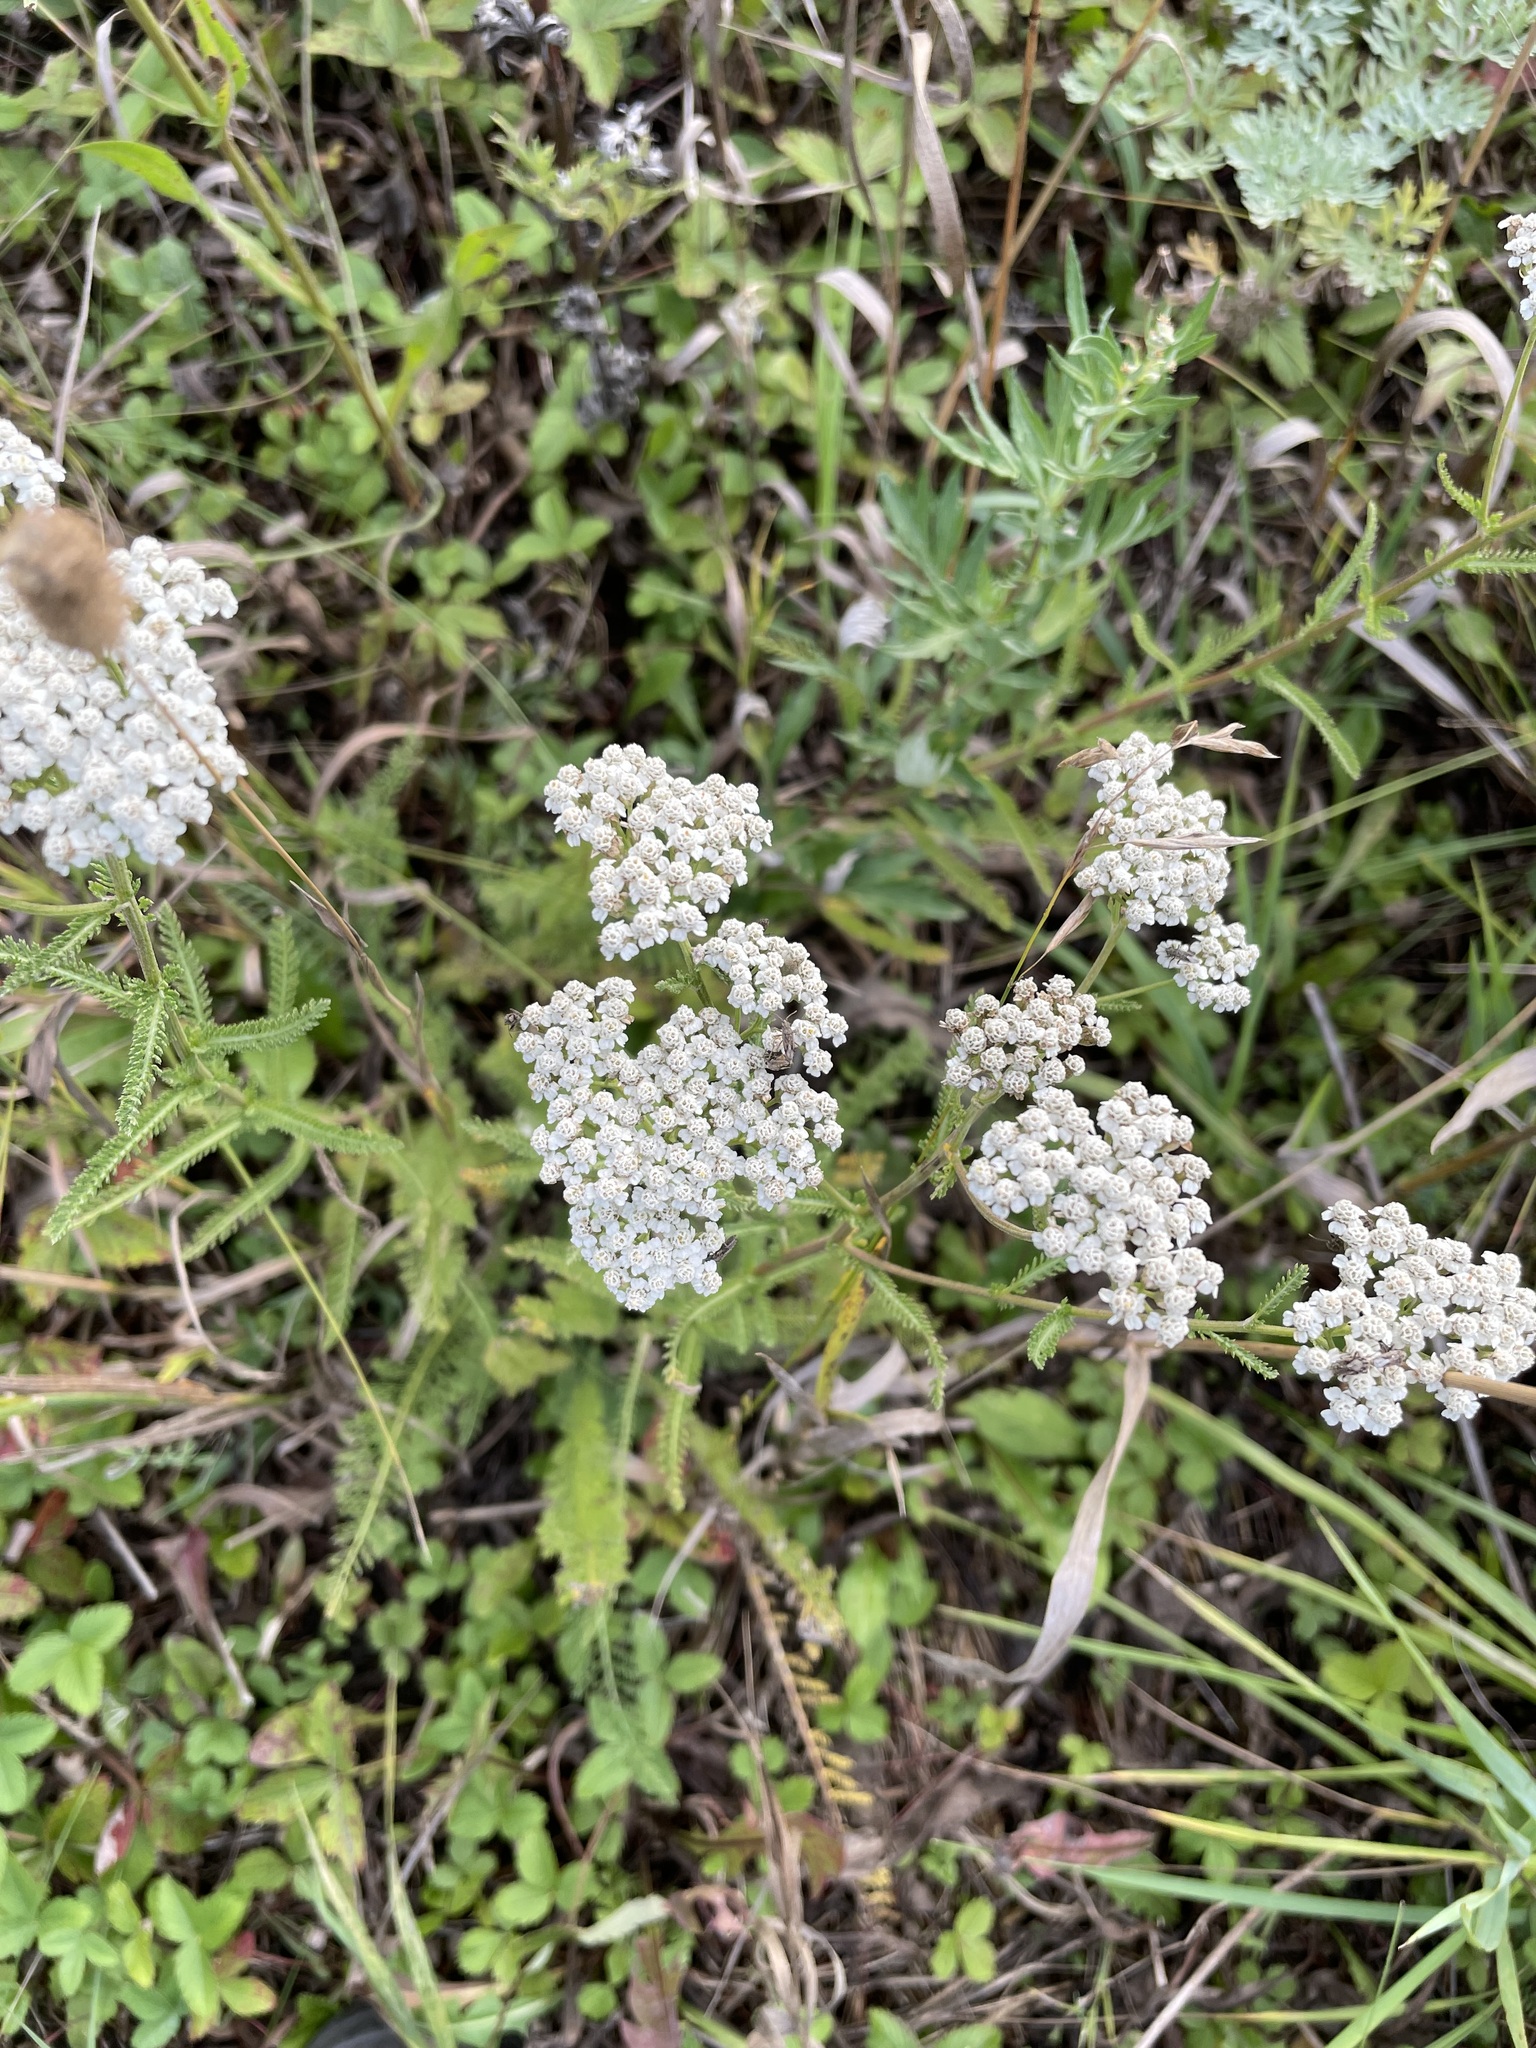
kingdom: Plantae
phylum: Tracheophyta
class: Magnoliopsida
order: Asterales
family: Asteraceae
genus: Achillea
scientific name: Achillea millefolium
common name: Yarrow
